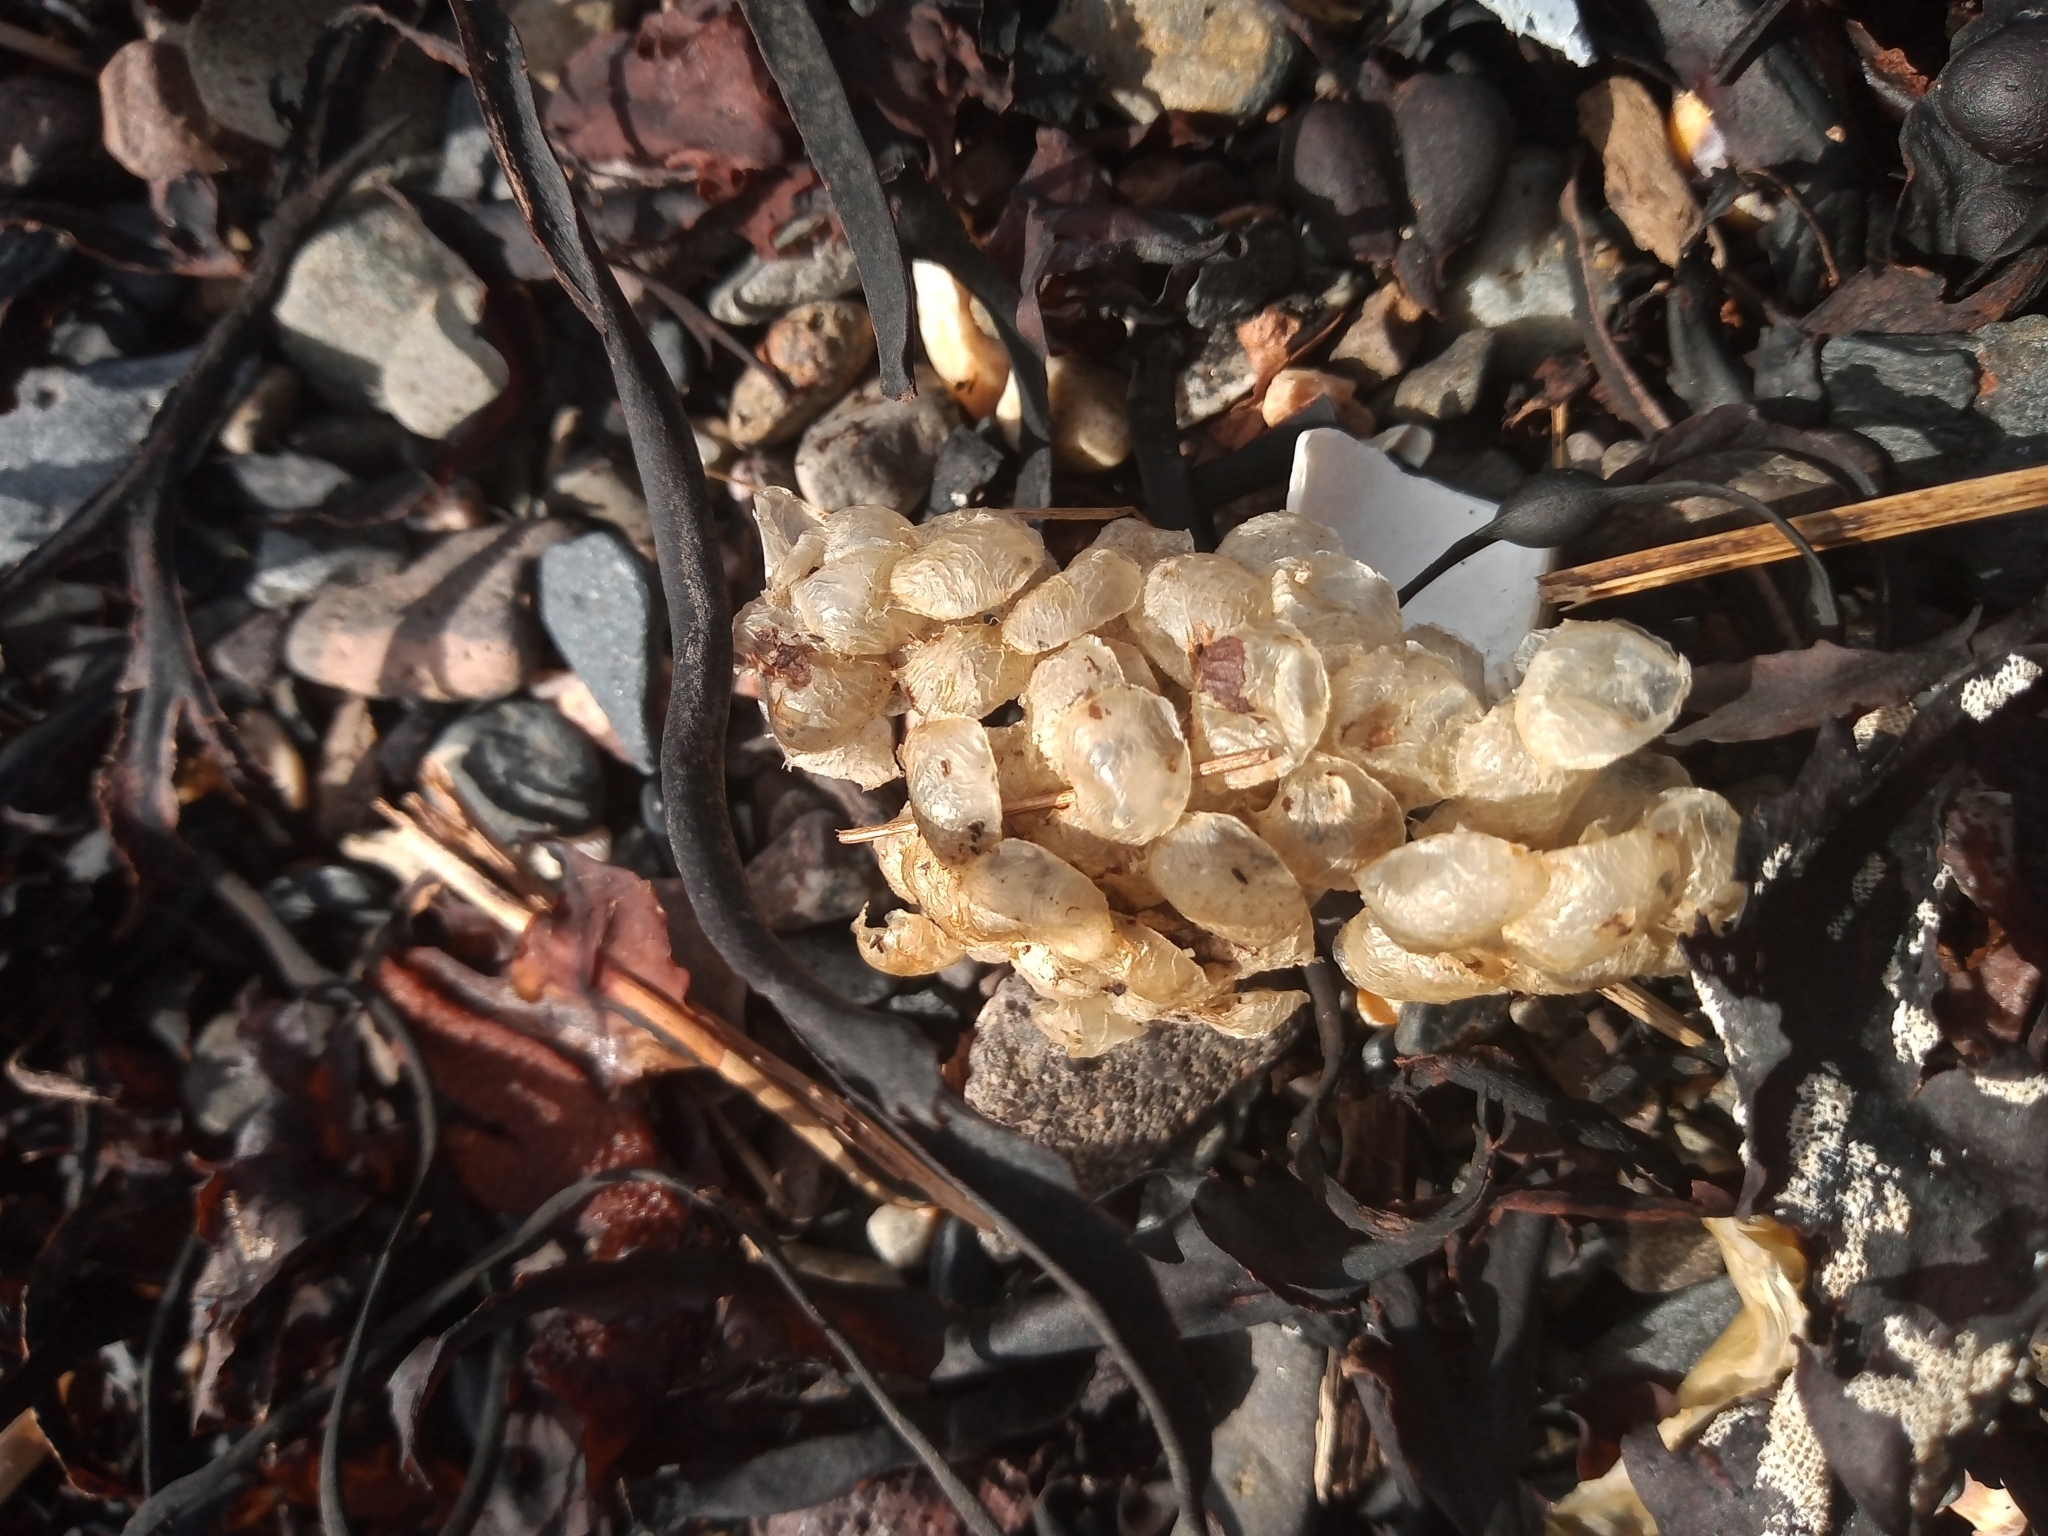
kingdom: Animalia
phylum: Mollusca
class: Gastropoda
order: Neogastropoda
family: Buccinidae
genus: Buccinum
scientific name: Buccinum undatum
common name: Common whelk
